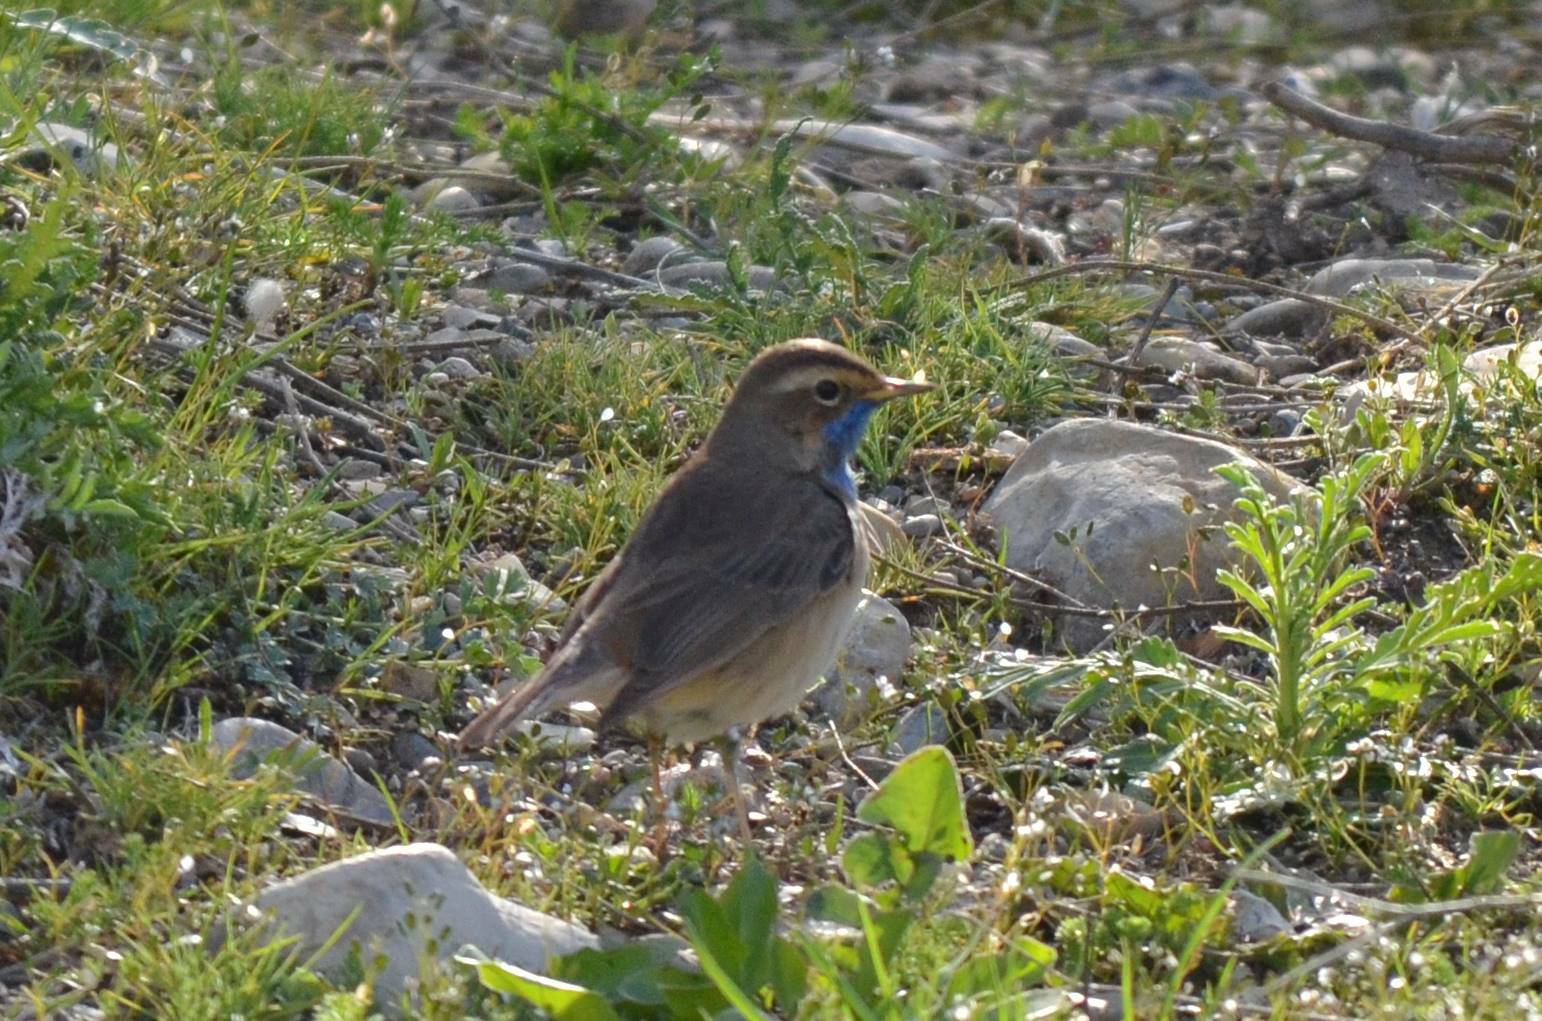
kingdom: Animalia
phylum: Chordata
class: Aves
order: Passeriformes
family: Muscicapidae
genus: Luscinia
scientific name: Luscinia svecica
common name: Bluethroat
